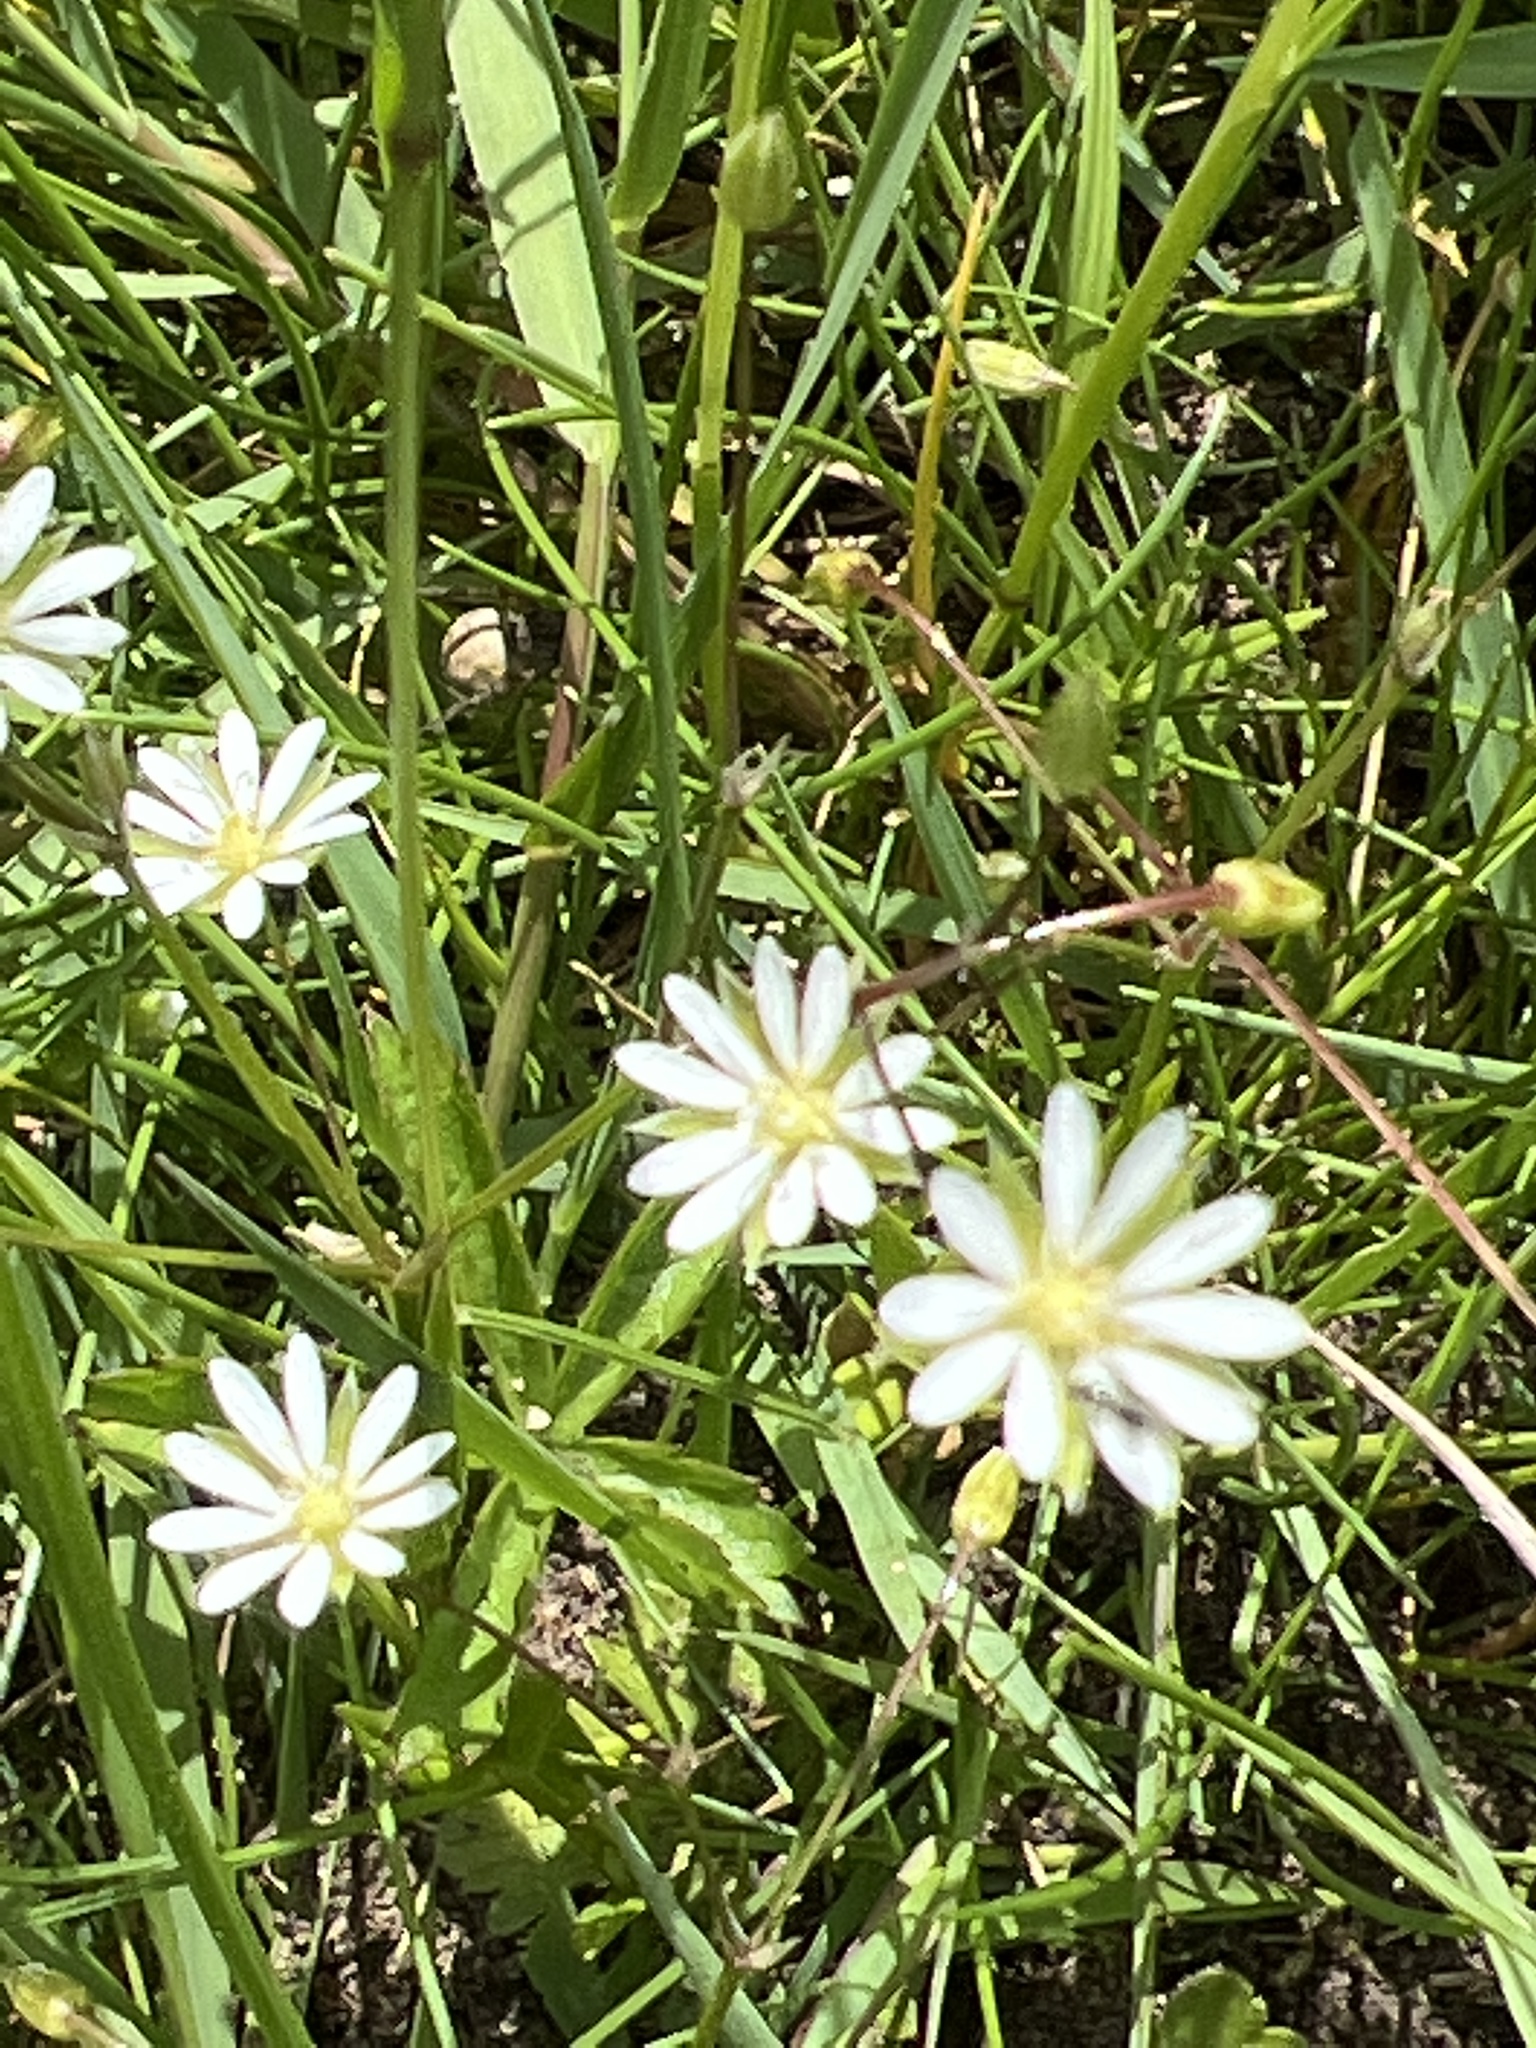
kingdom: Plantae
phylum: Tracheophyta
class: Magnoliopsida
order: Caryophyllales
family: Caryophyllaceae
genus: Stellaria
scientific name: Stellaria graminea
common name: Grass-like starwort
